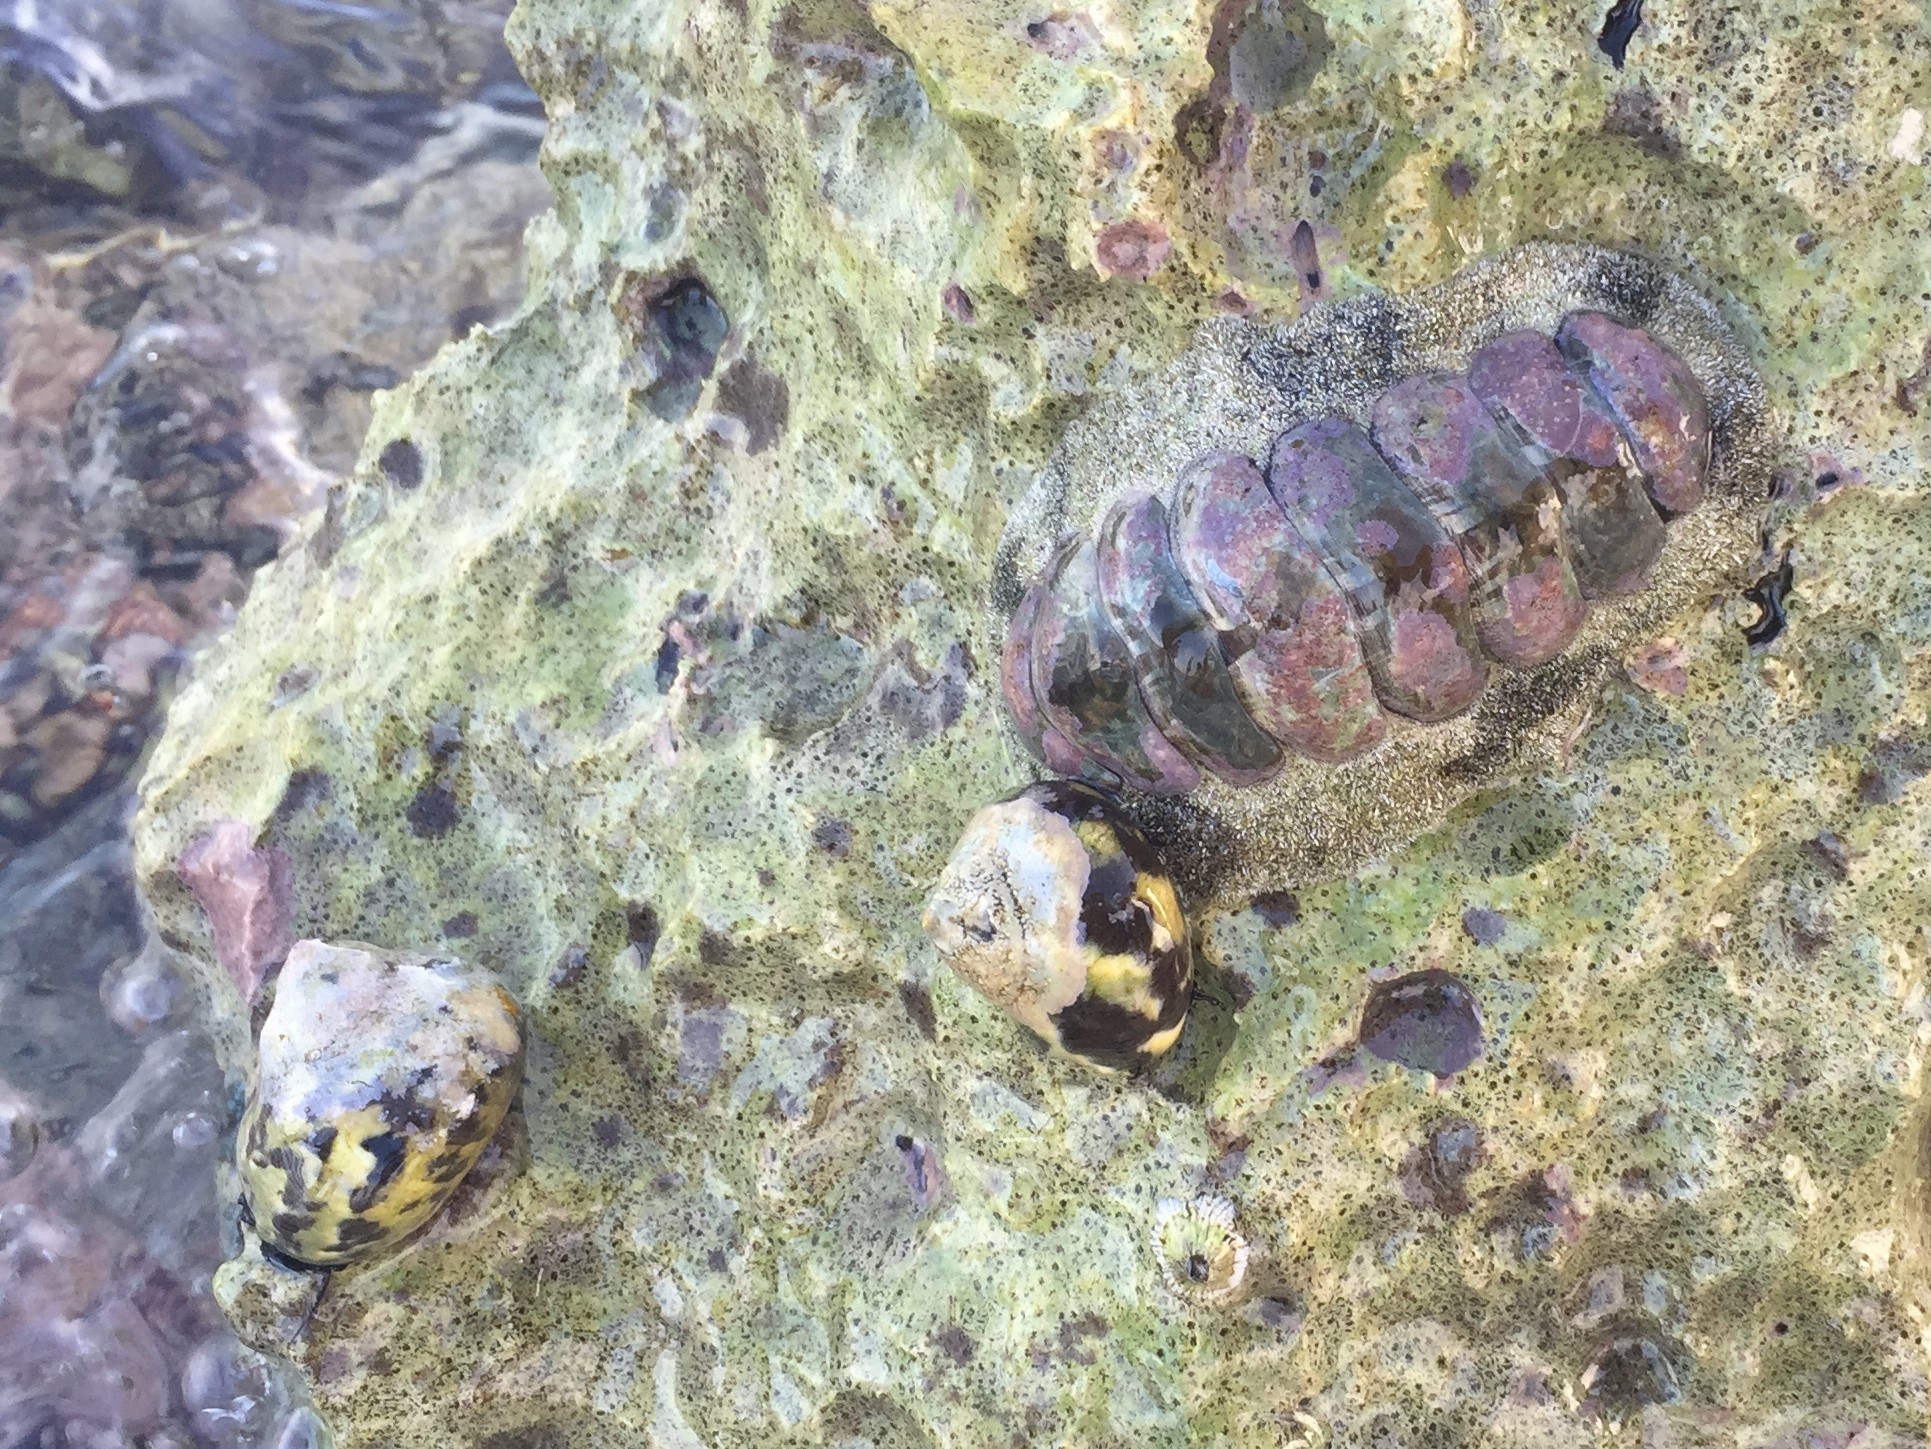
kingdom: Animalia
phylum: Mollusca
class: Polyplacophora
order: Chitonida
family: Chitonidae
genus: Acanthopleura
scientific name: Acanthopleura granulata
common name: West indian fuzzy chiton
